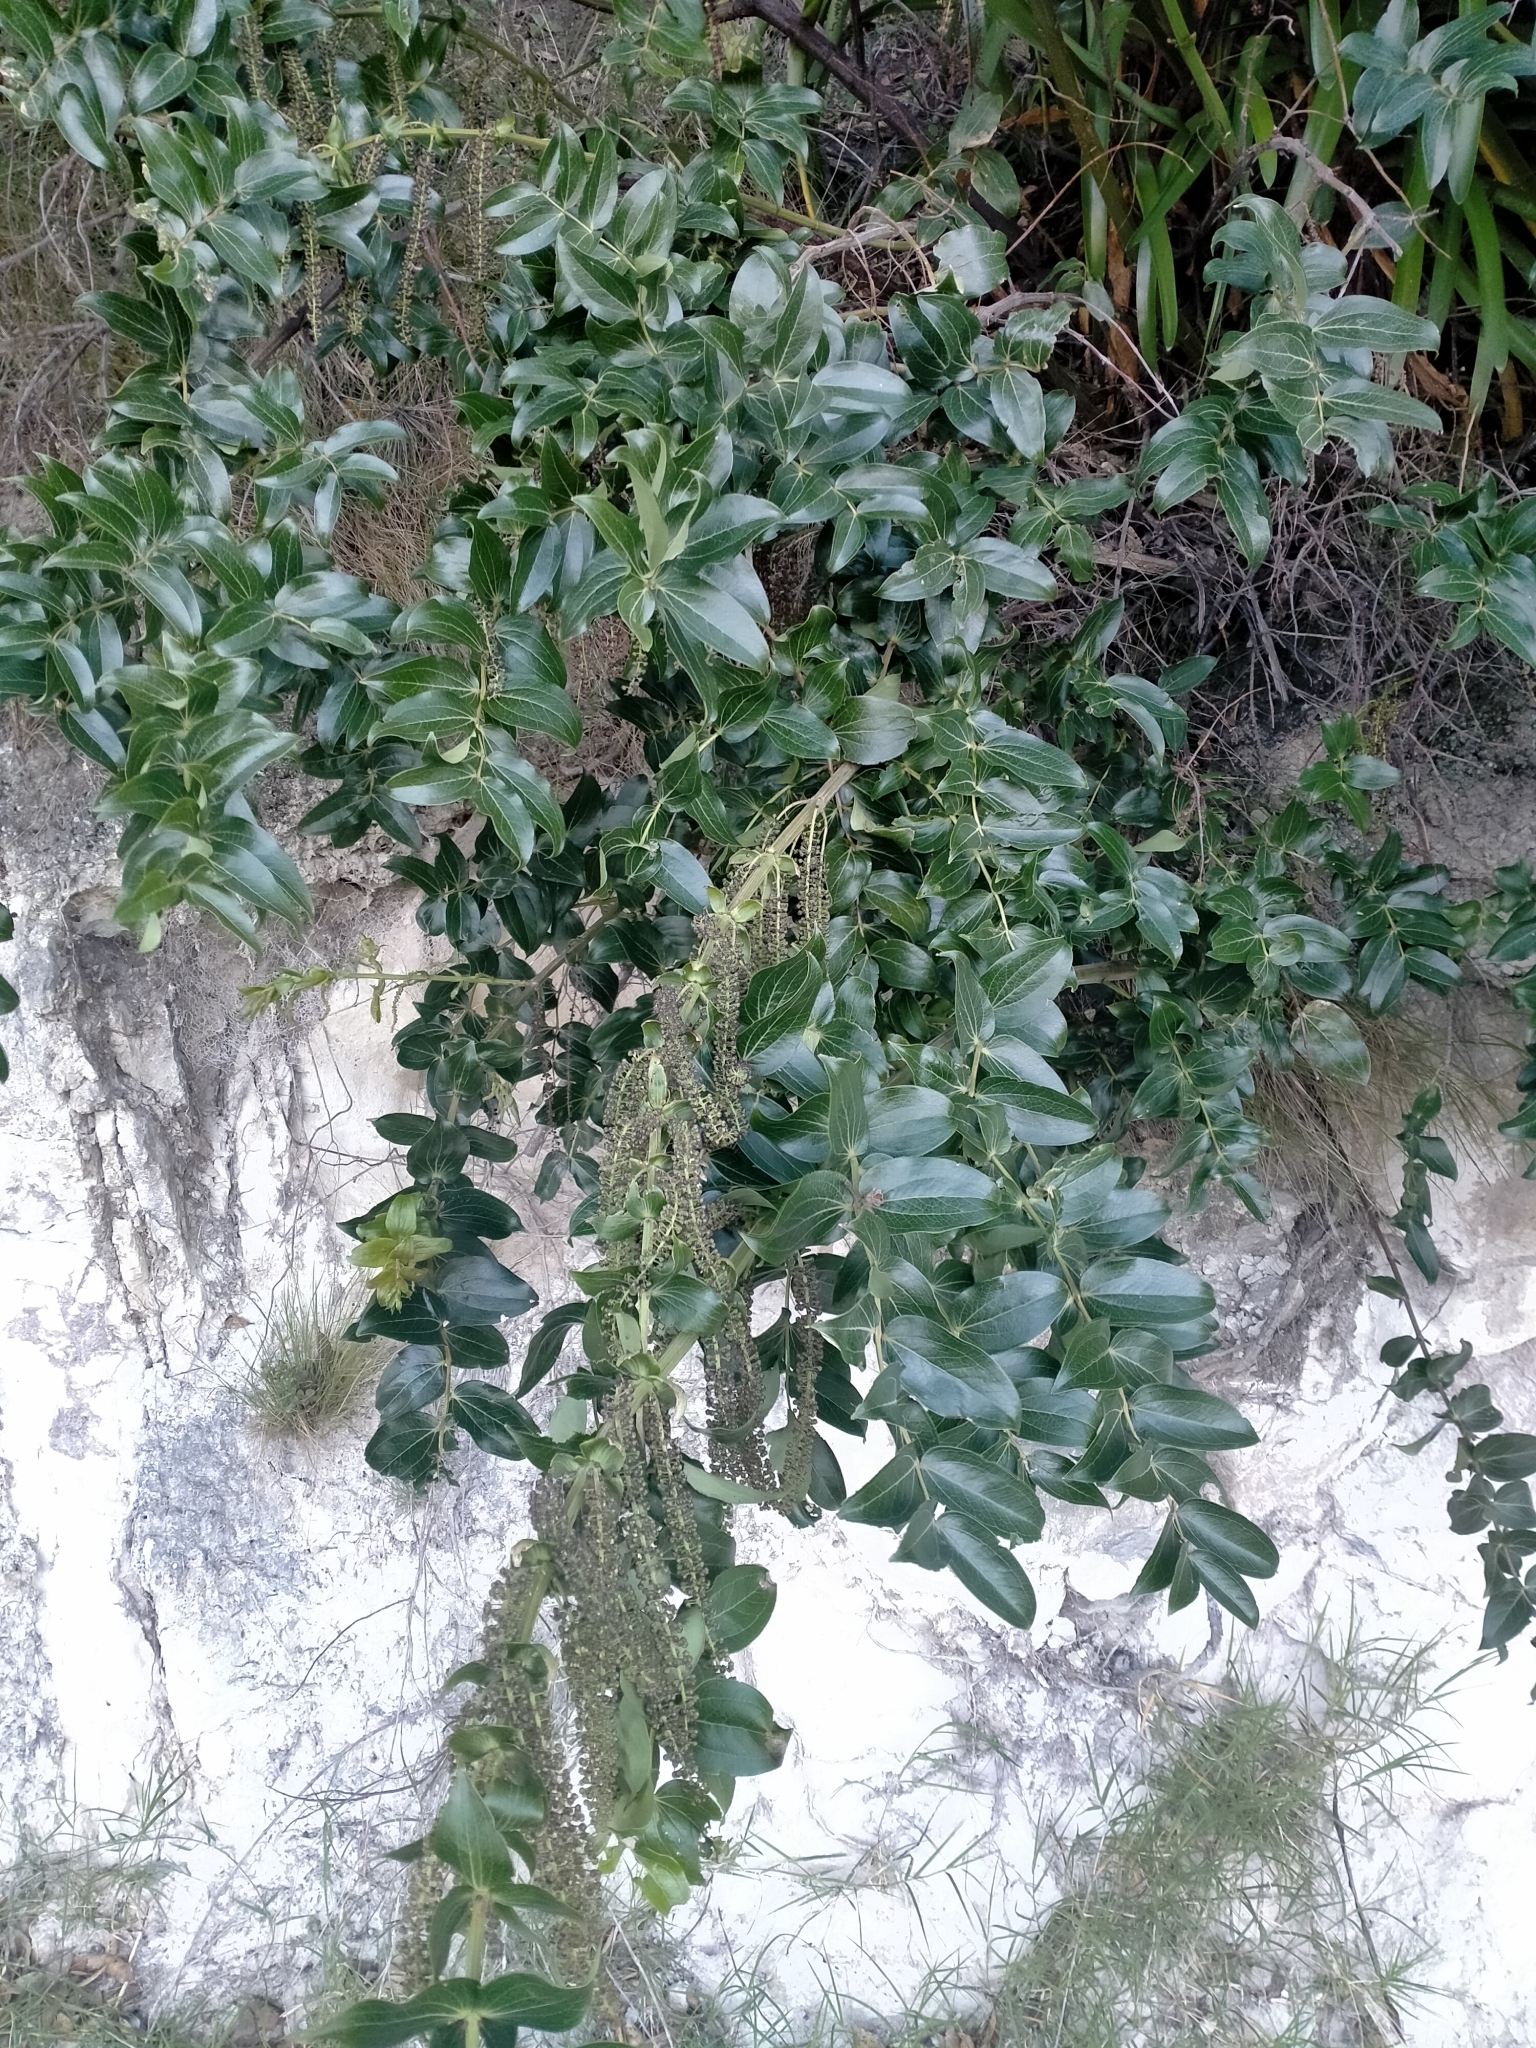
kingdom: Plantae
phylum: Tracheophyta
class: Magnoliopsida
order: Cucurbitales
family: Coriariaceae
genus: Coriaria
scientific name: Coriaria arborea
